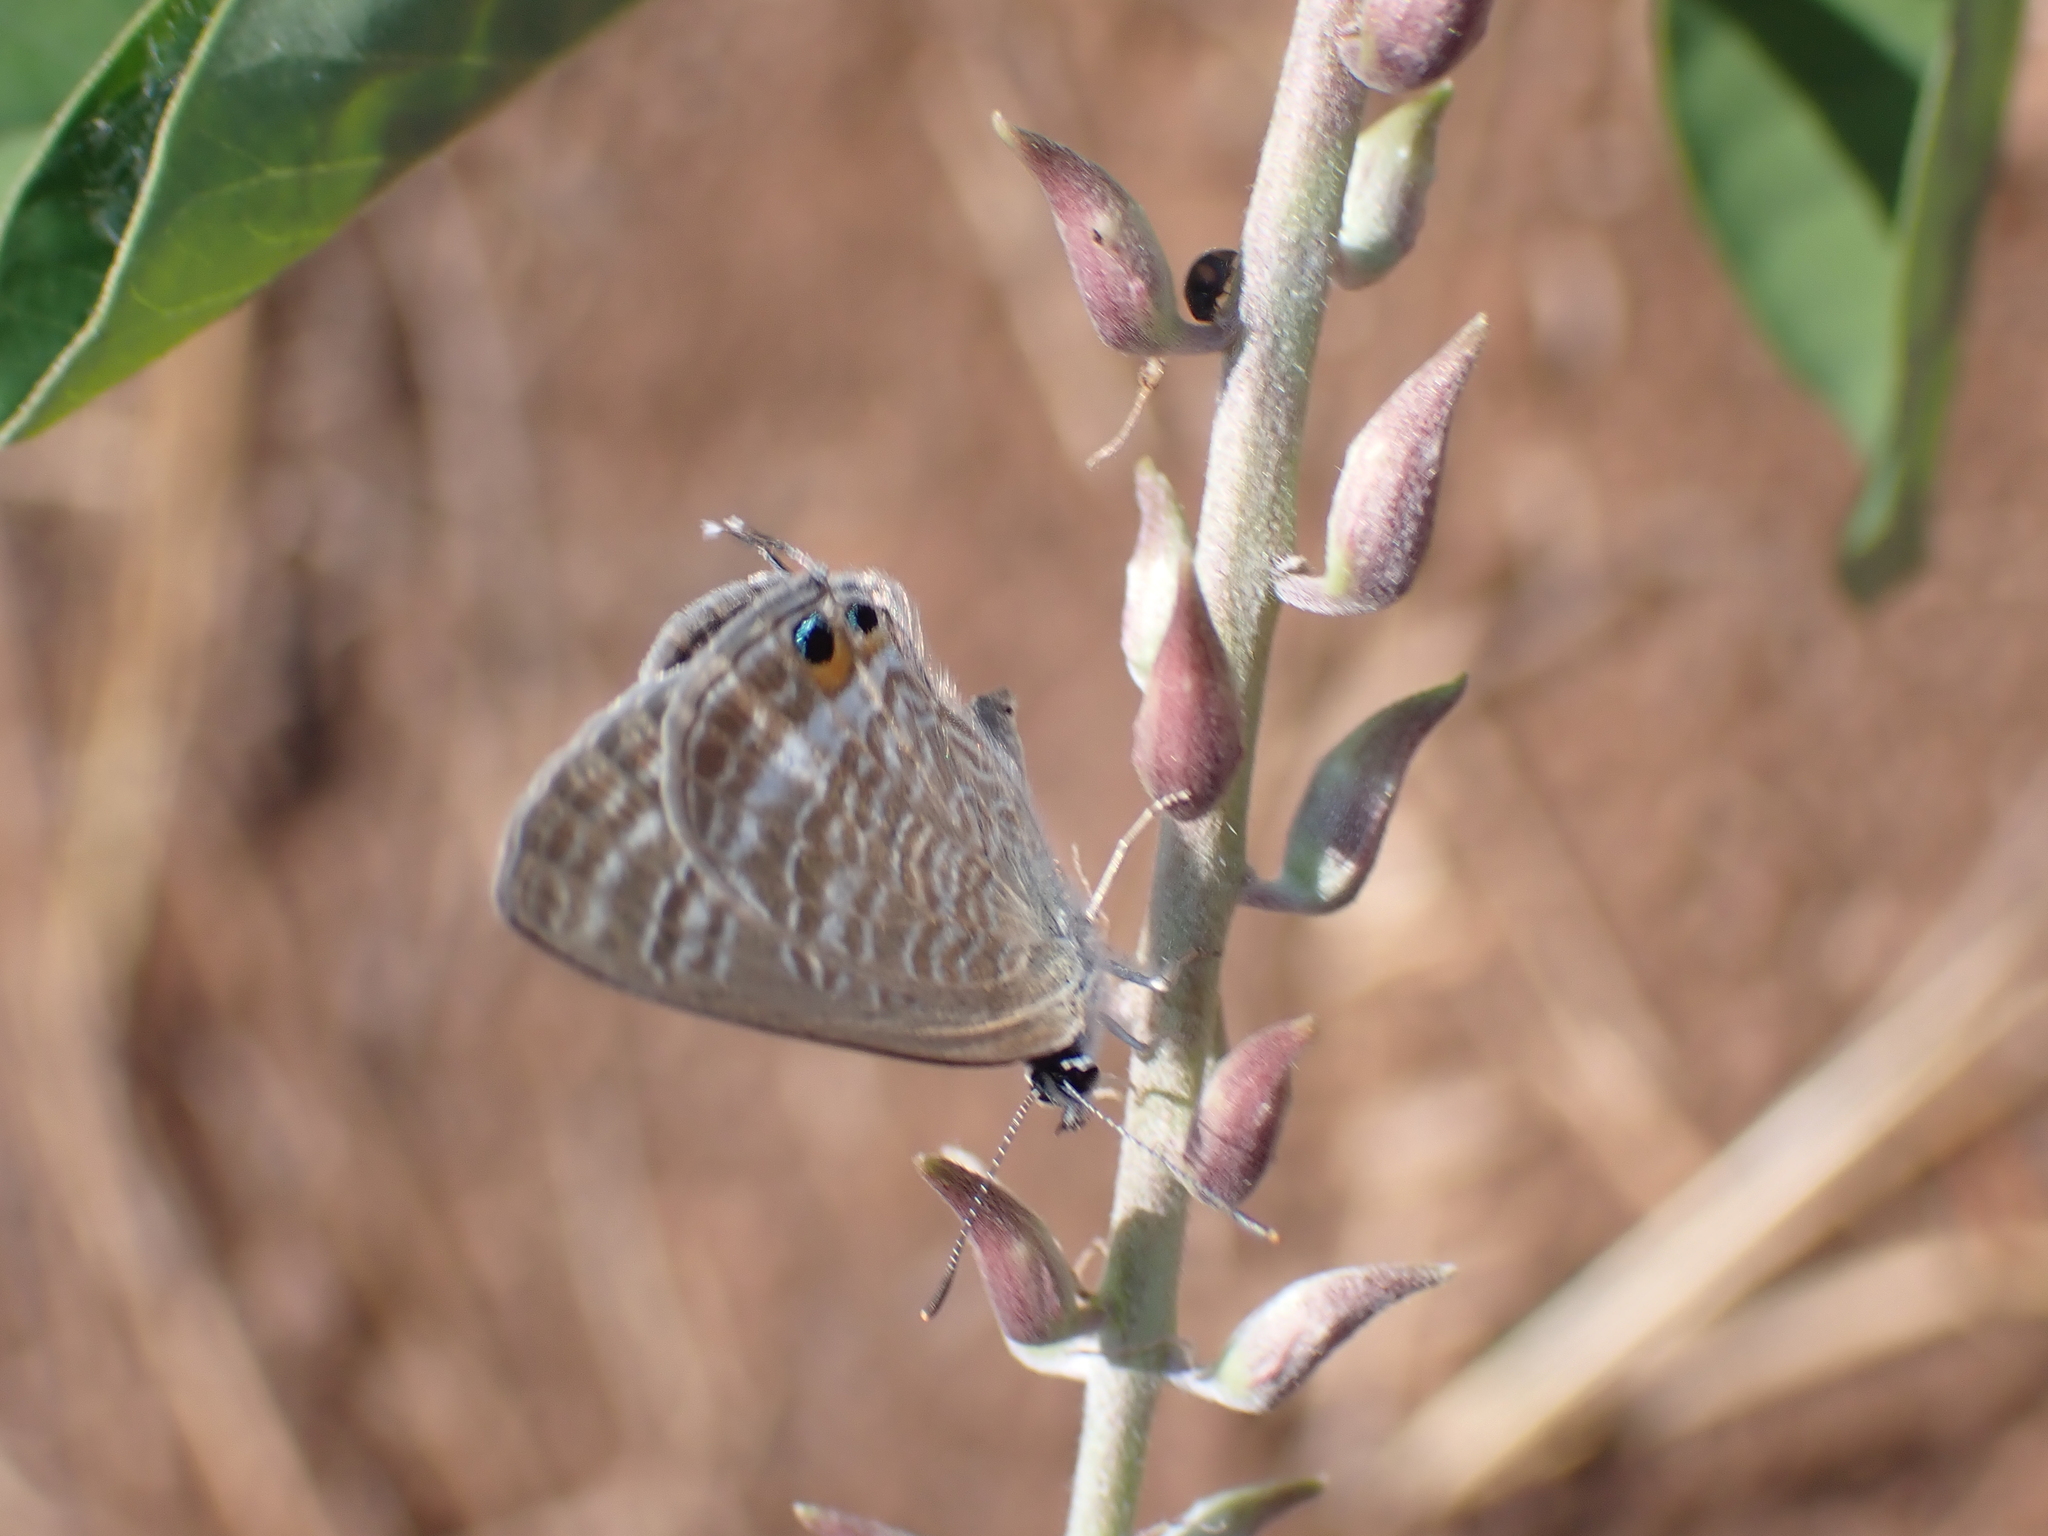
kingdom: Animalia
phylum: Arthropoda
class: Insecta
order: Lepidoptera
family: Lycaenidae
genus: Lampides
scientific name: Lampides boeticus
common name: Long-tailed blue
